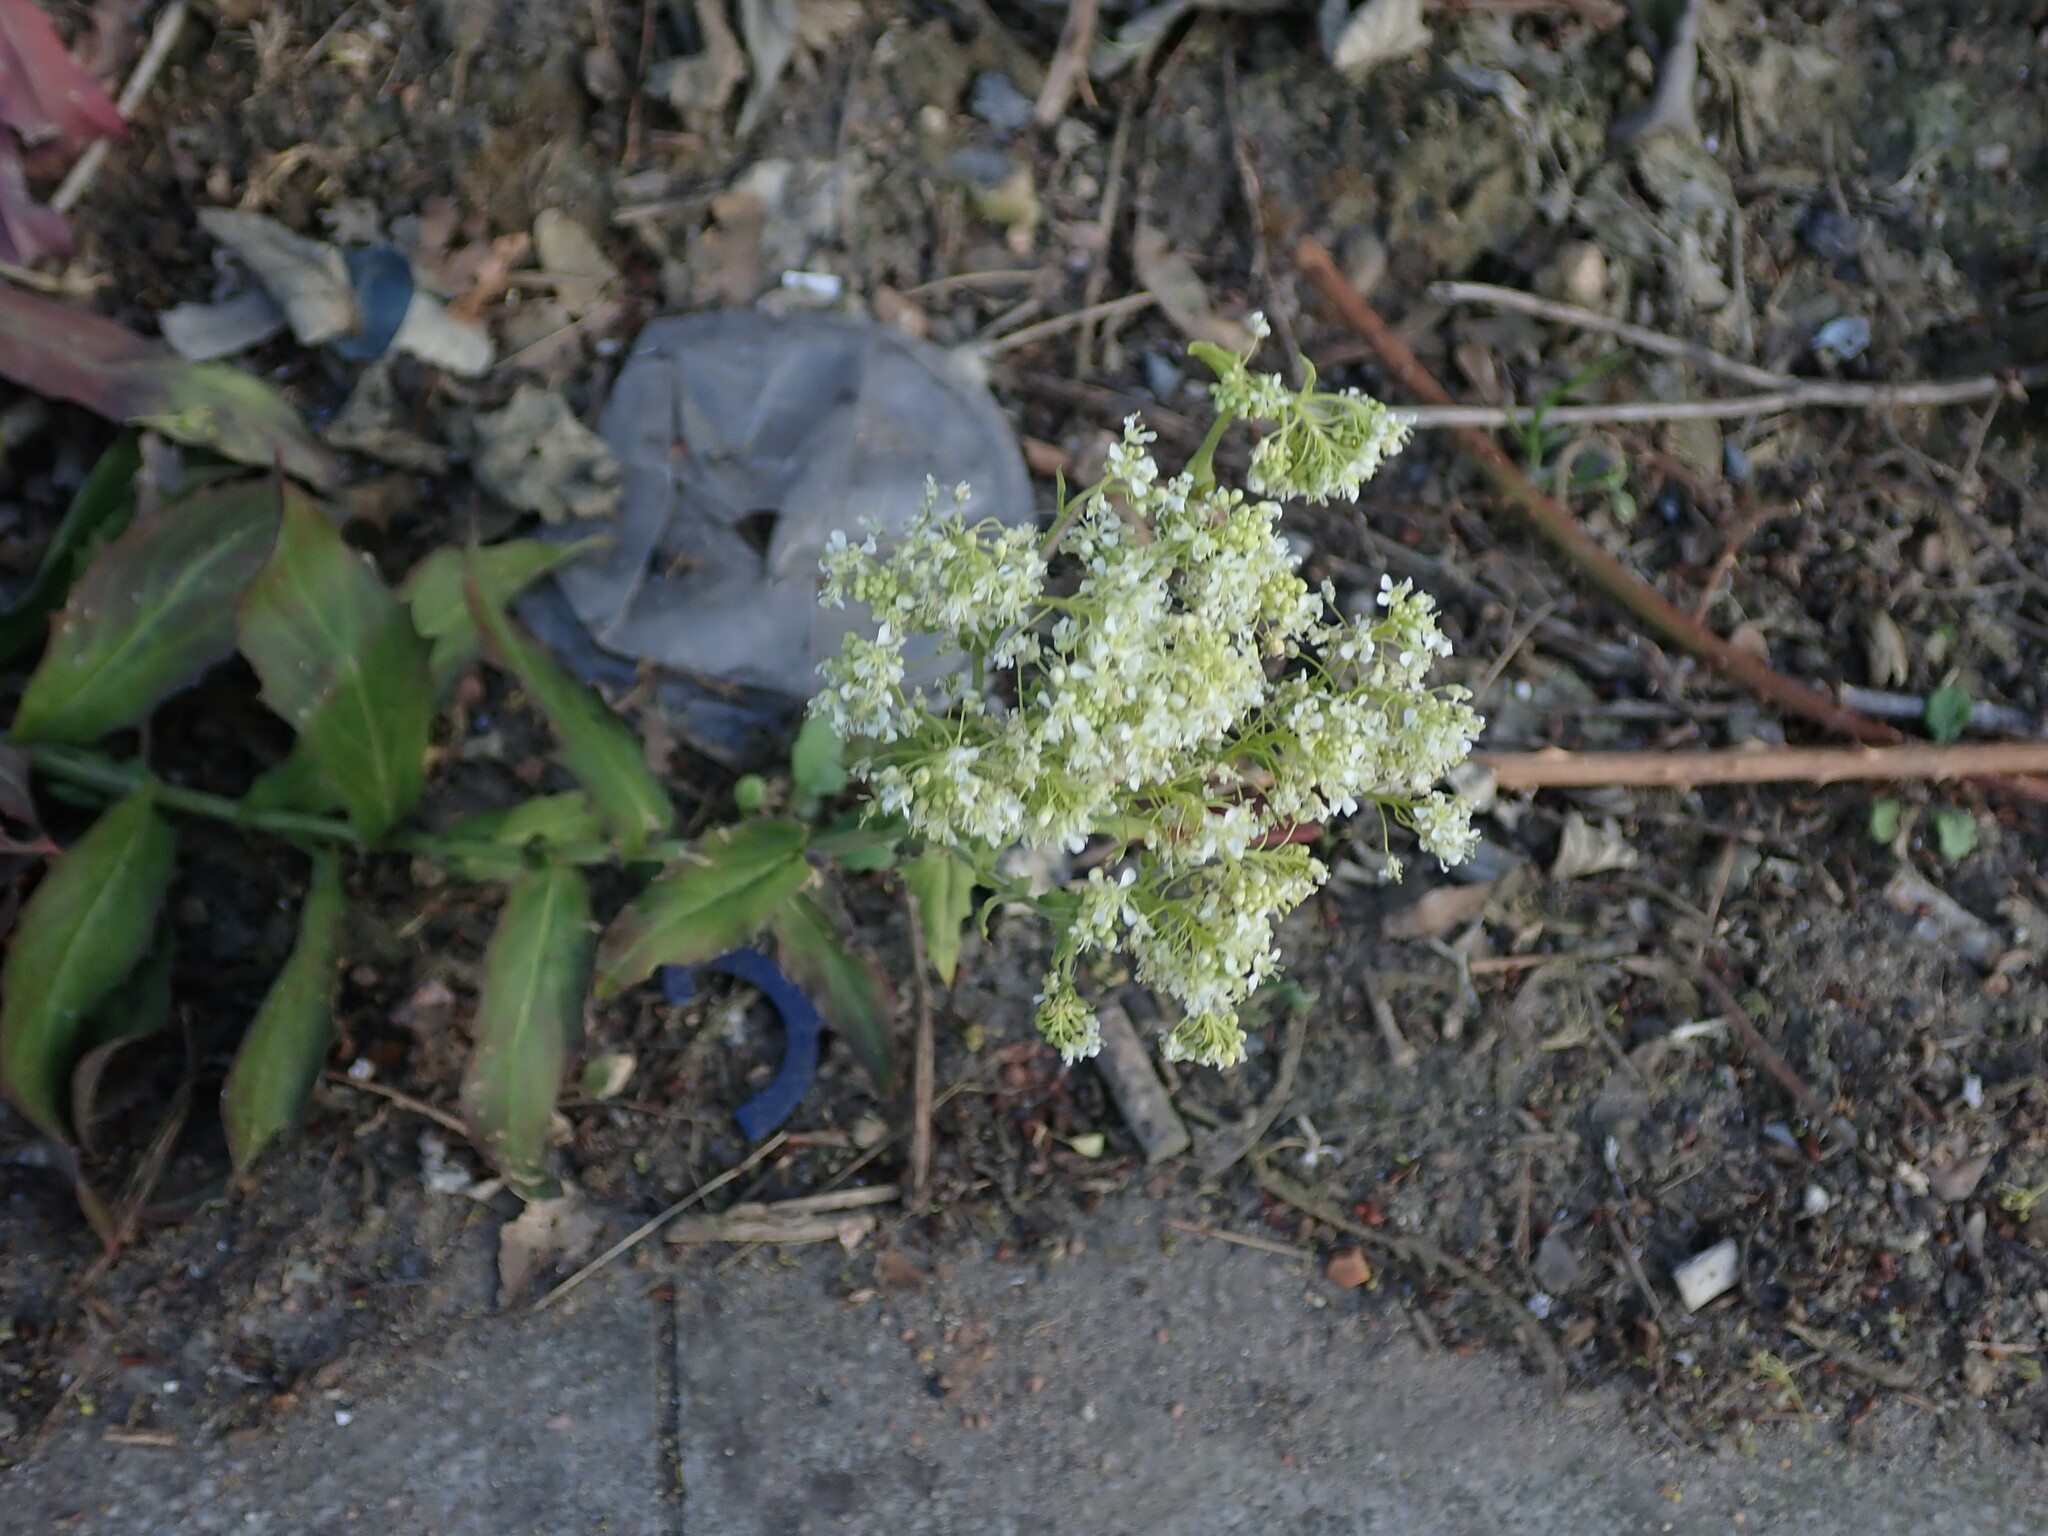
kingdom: Plantae
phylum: Tracheophyta
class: Magnoliopsida
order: Brassicales
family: Brassicaceae
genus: Lepidium
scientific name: Lepidium draba
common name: Hoary cress
